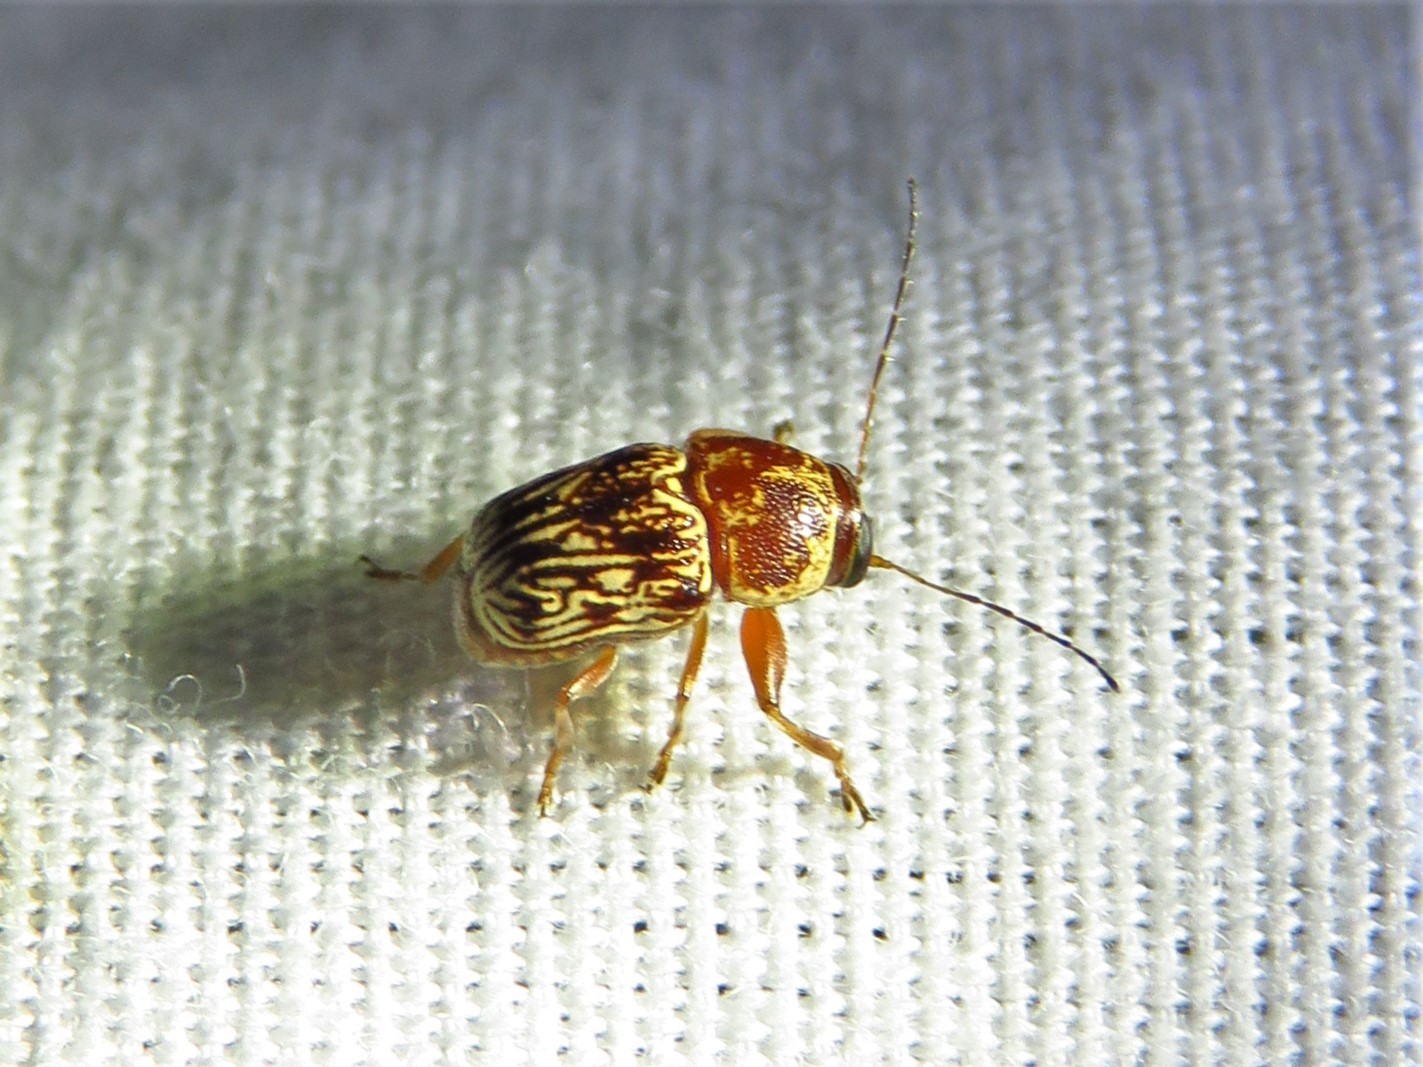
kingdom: Animalia
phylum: Arthropoda
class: Insecta
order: Coleoptera
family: Chrysomelidae
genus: Pachybrachis
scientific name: Pachybrachis
